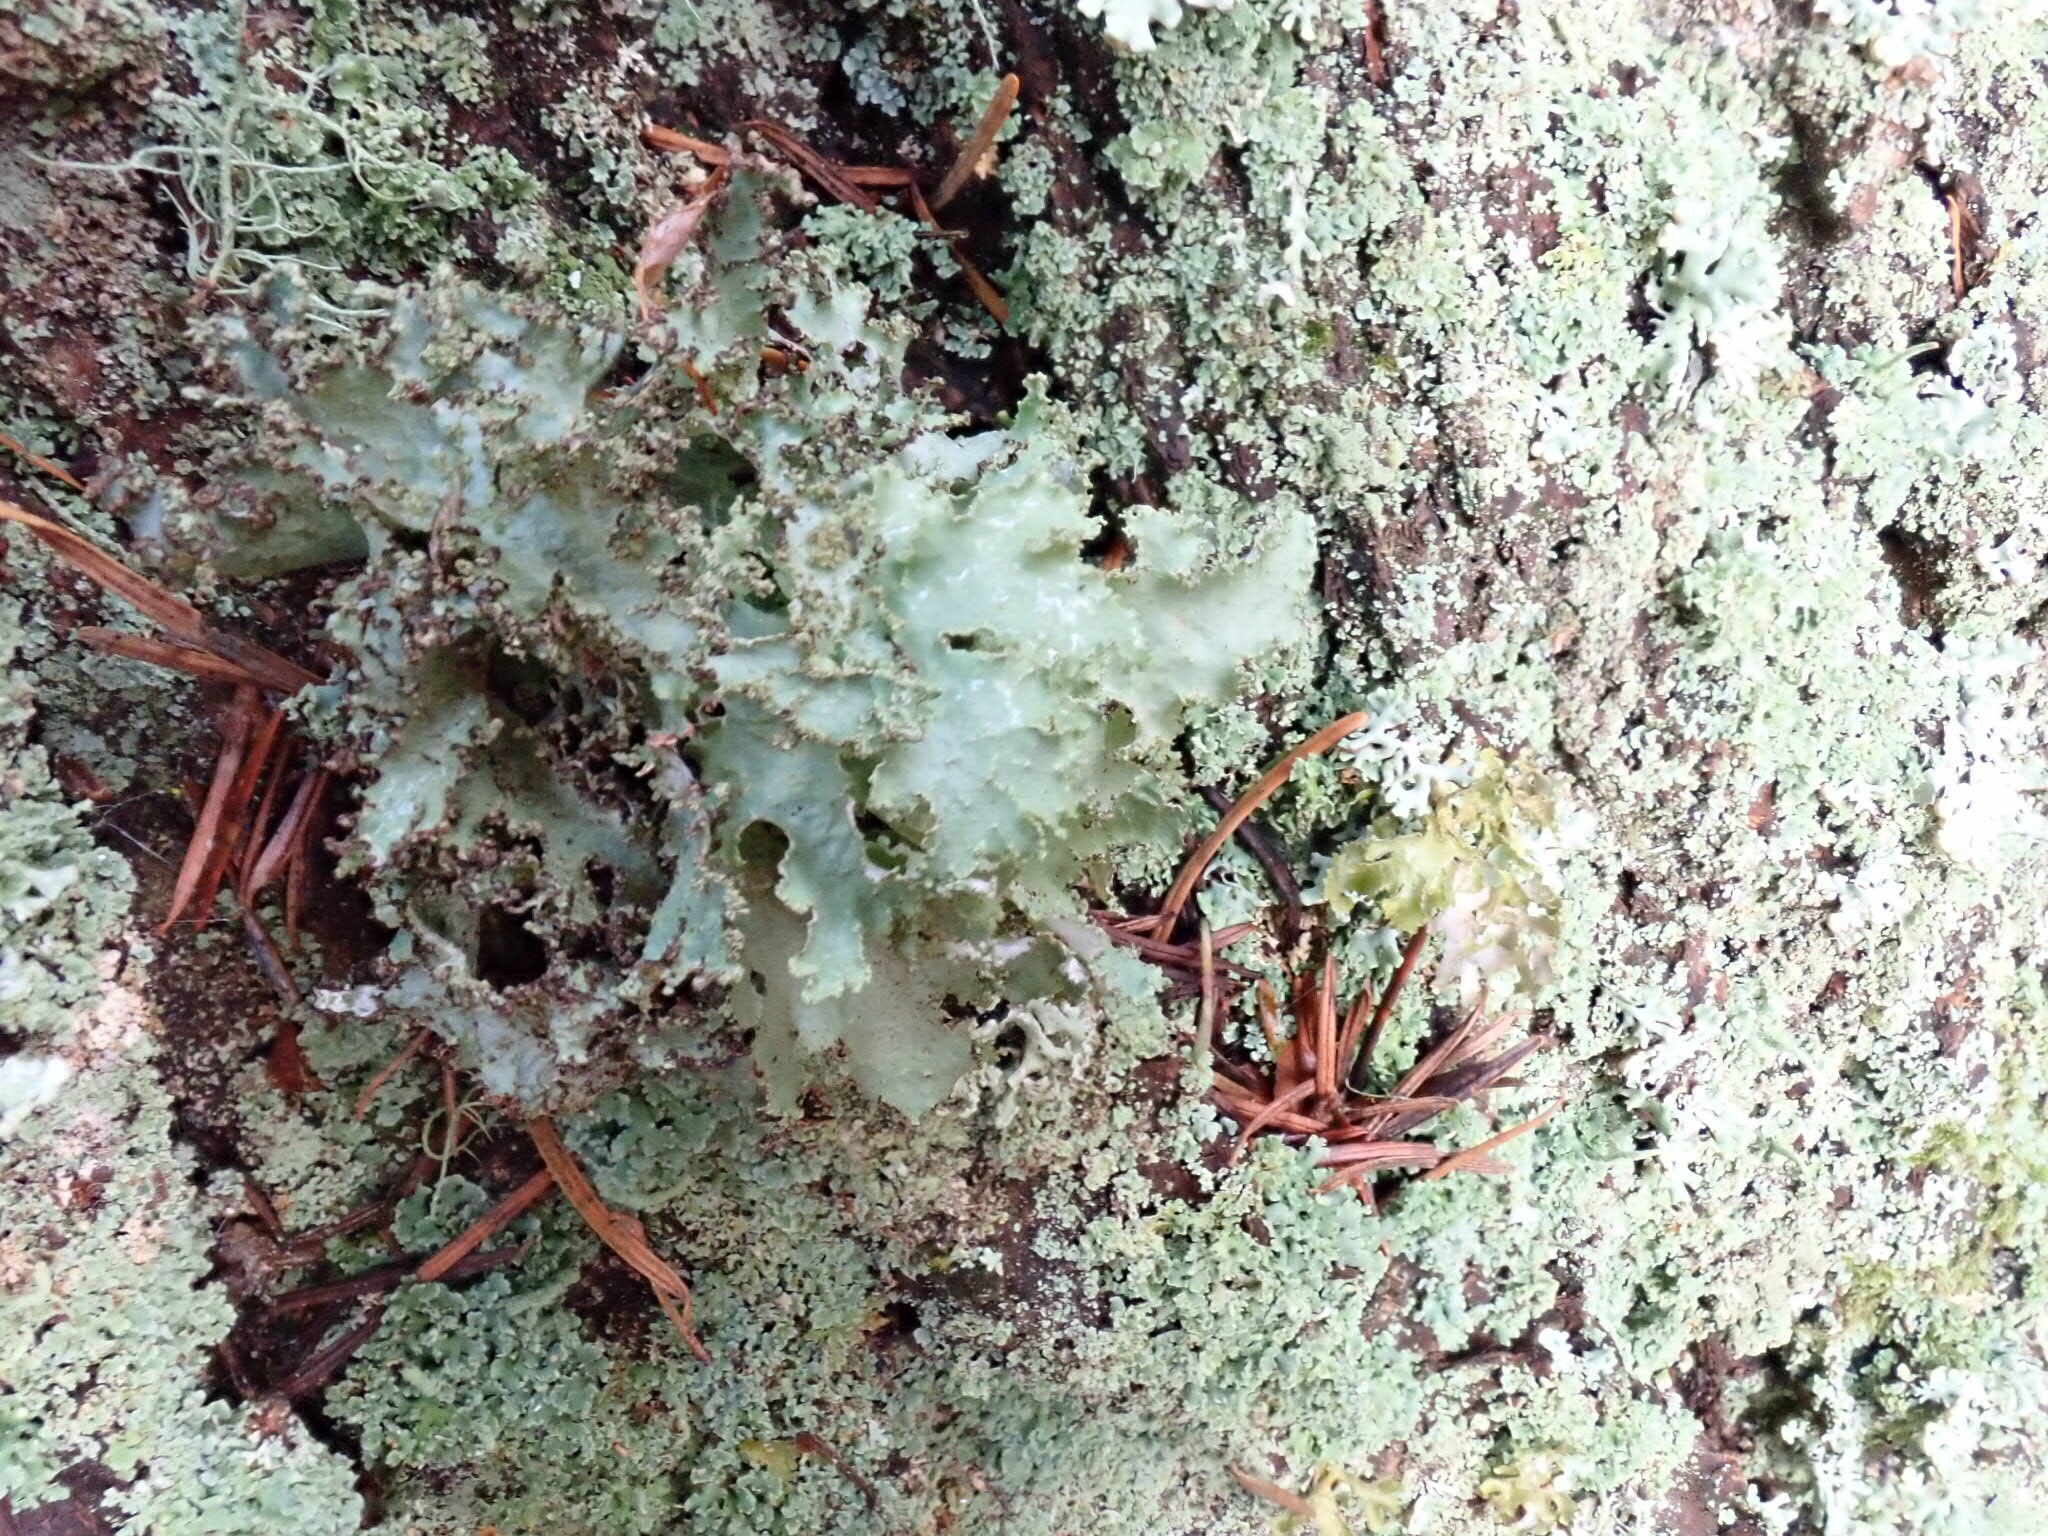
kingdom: Fungi
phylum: Ascomycota
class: Lecanoromycetes
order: Lecanorales
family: Parmeliaceae
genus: Platismatia
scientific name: Platismatia glauca
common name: Varied rag lichen
